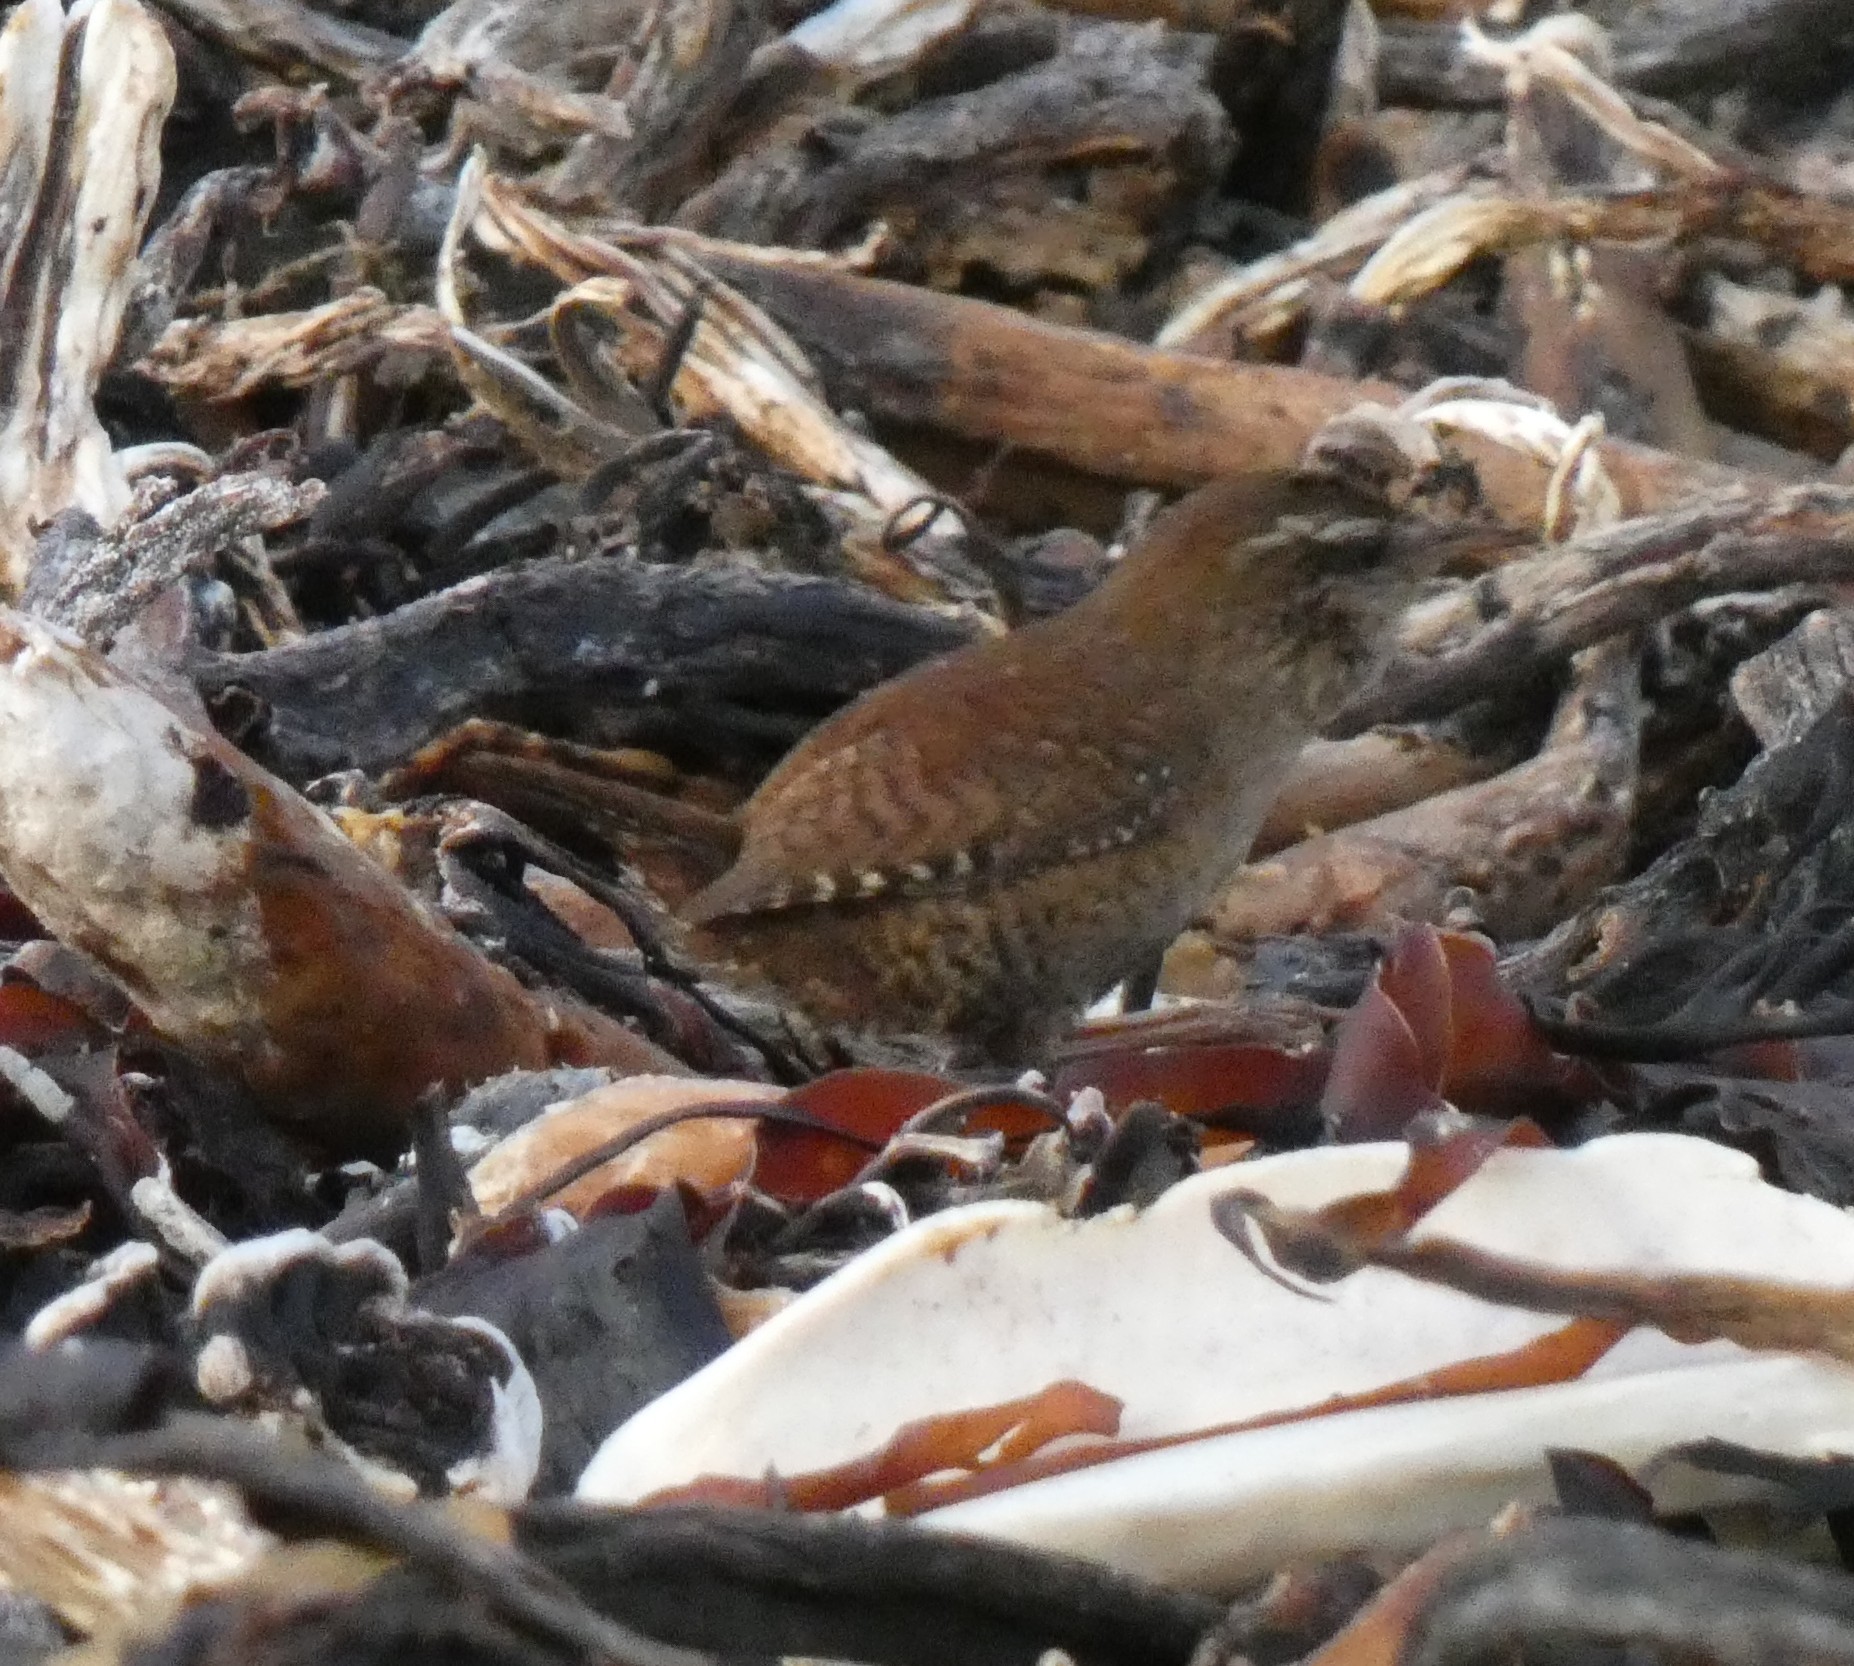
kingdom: Animalia
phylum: Chordata
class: Aves
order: Passeriformes
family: Troglodytidae
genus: Troglodytes
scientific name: Troglodytes troglodytes
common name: Eurasian wren
